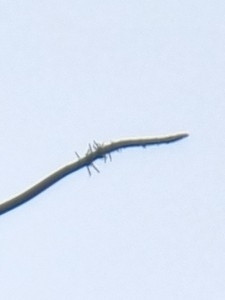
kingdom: Plantae
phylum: Tracheophyta
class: Liliopsida
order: Asparagales
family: Asparagaceae
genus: Scilla
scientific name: Scilla madeirensis
